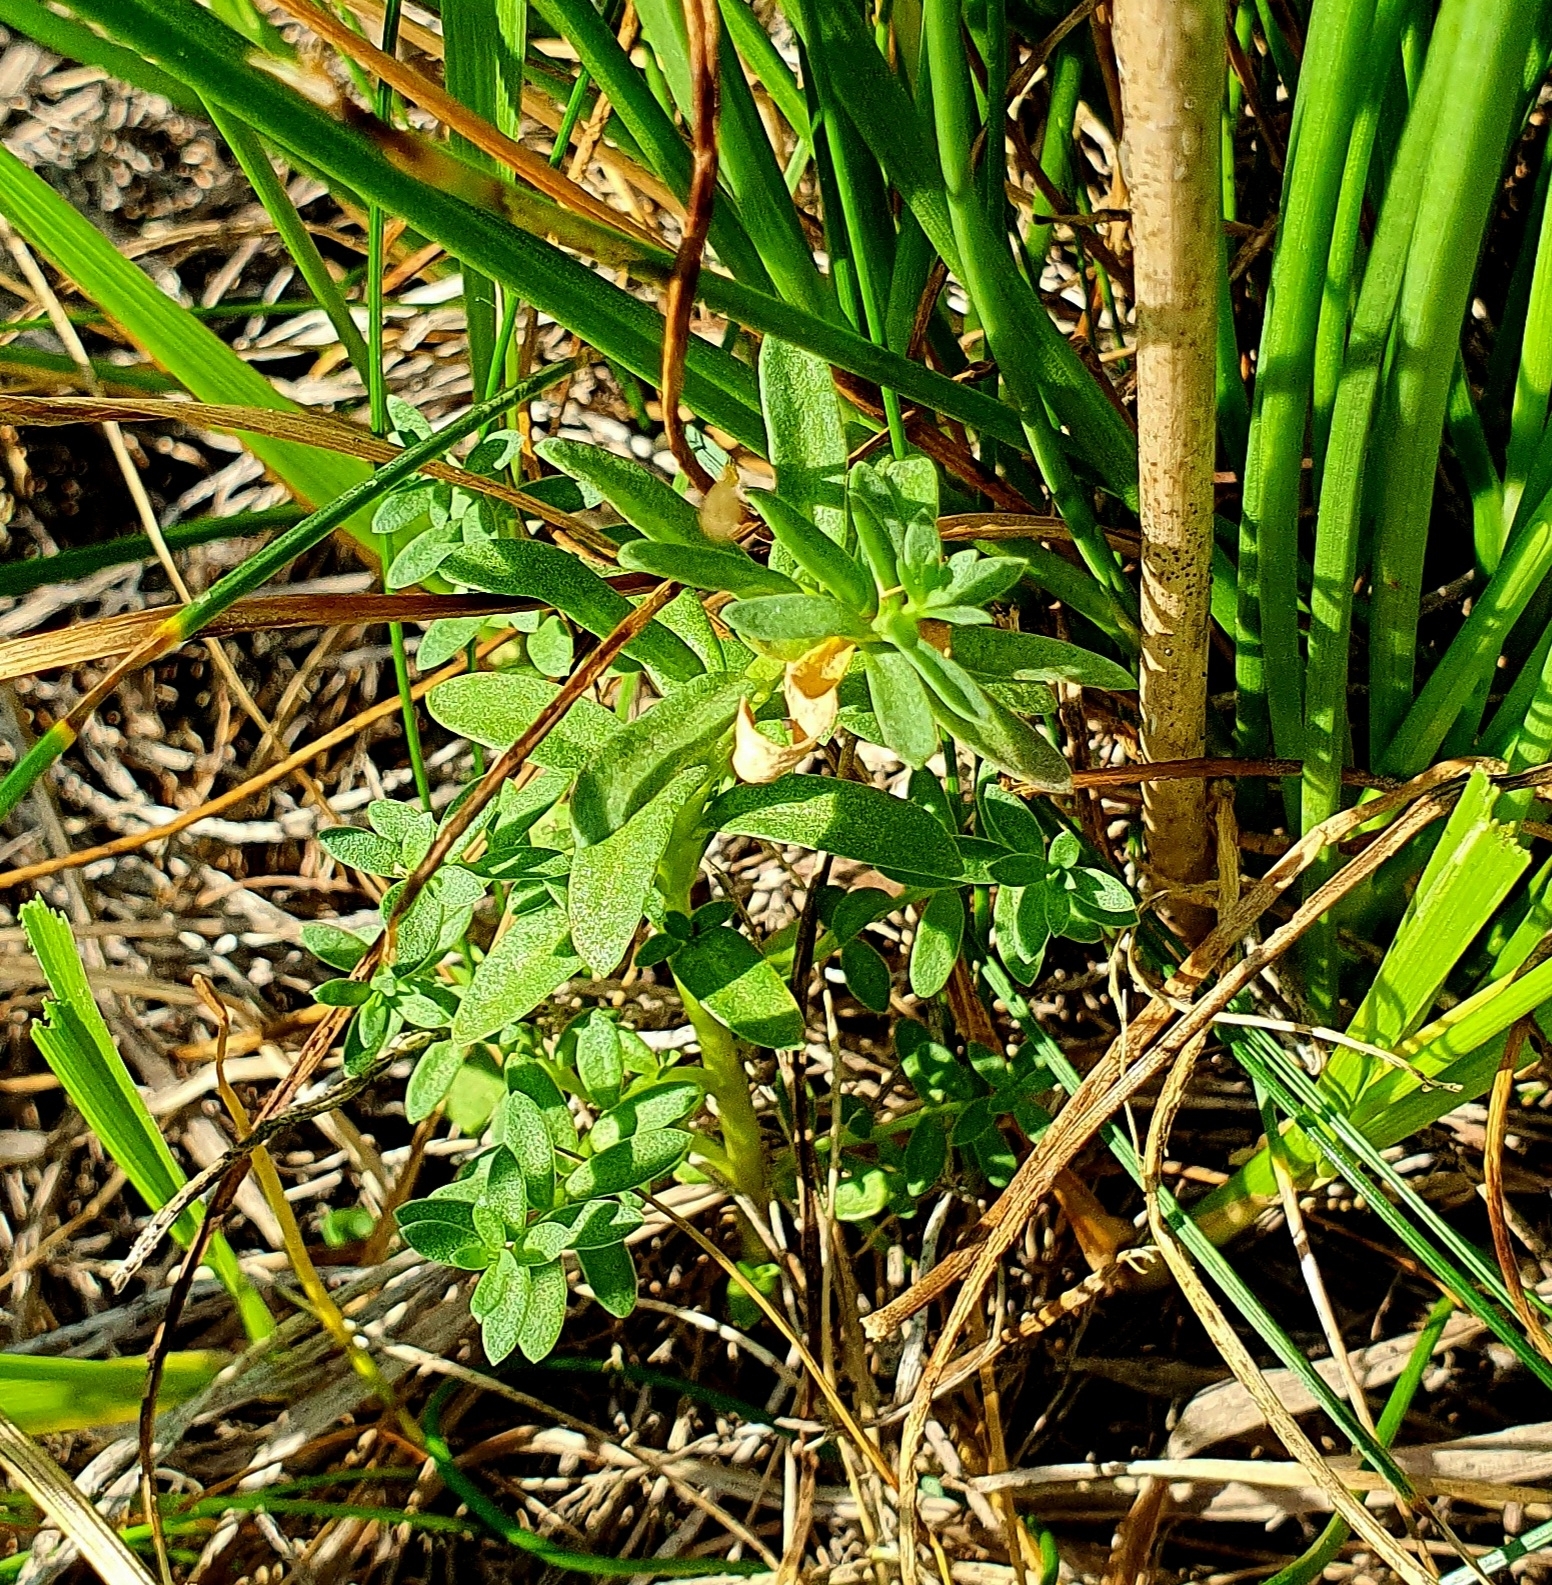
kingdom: Plantae
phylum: Tracheophyta
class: Magnoliopsida
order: Ericales
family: Primulaceae
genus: Lysimachia
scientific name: Lysimachia maritima
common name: Sea milkwort
